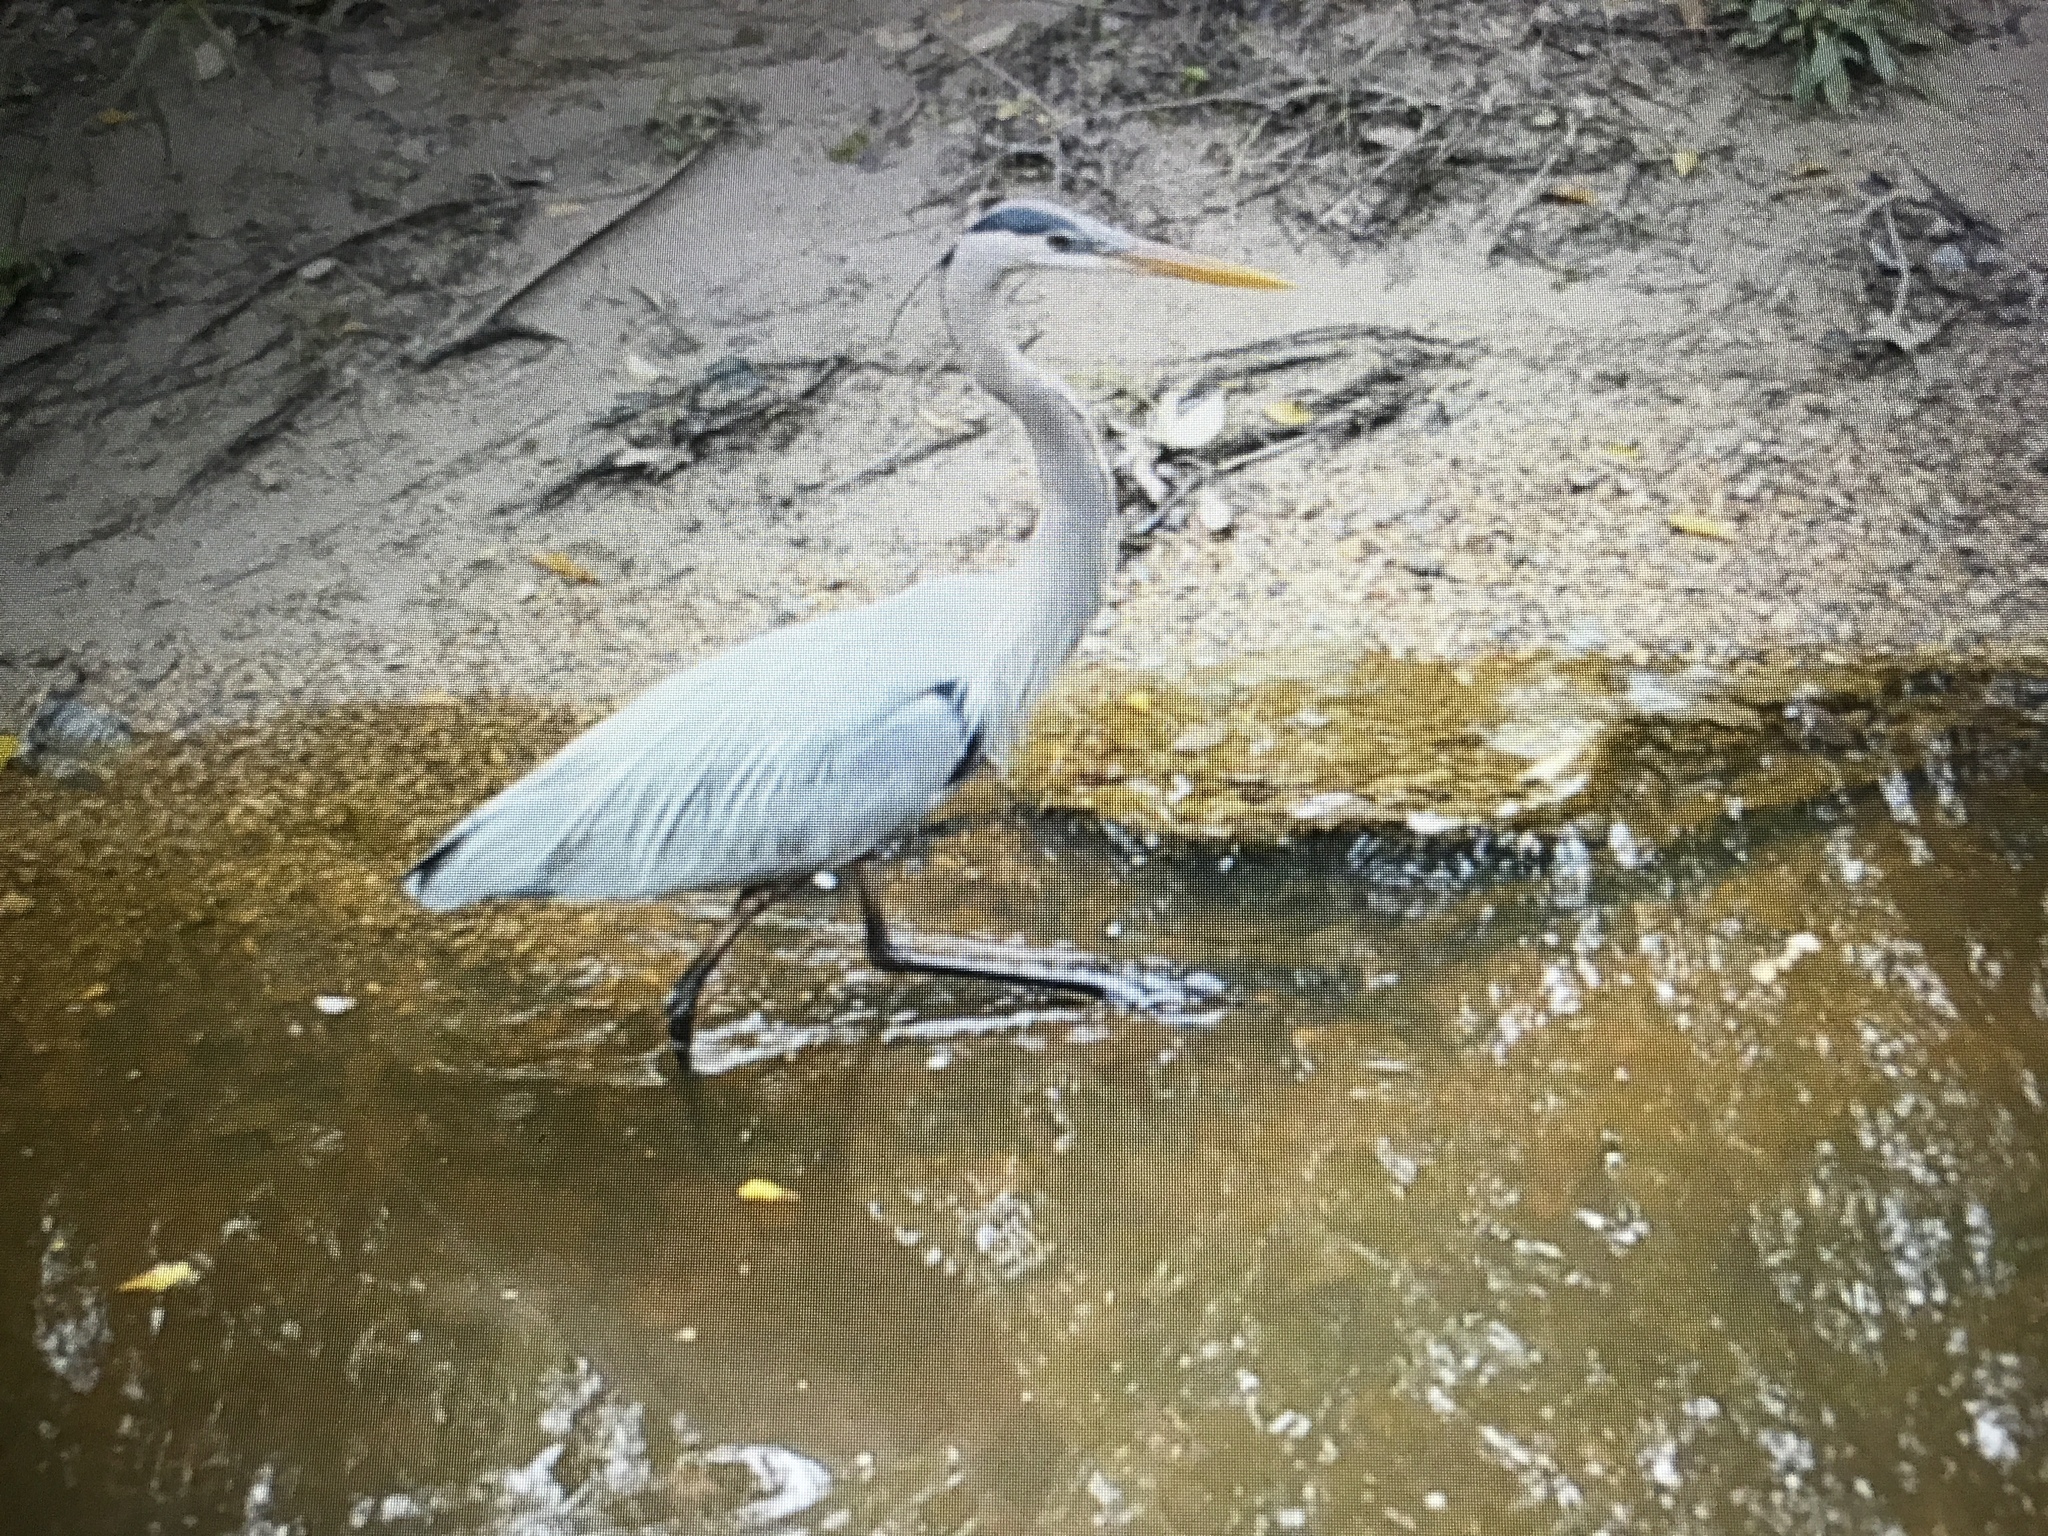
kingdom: Animalia
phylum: Chordata
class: Aves
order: Pelecaniformes
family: Ardeidae
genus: Ardea
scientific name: Ardea herodias
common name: Great blue heron
